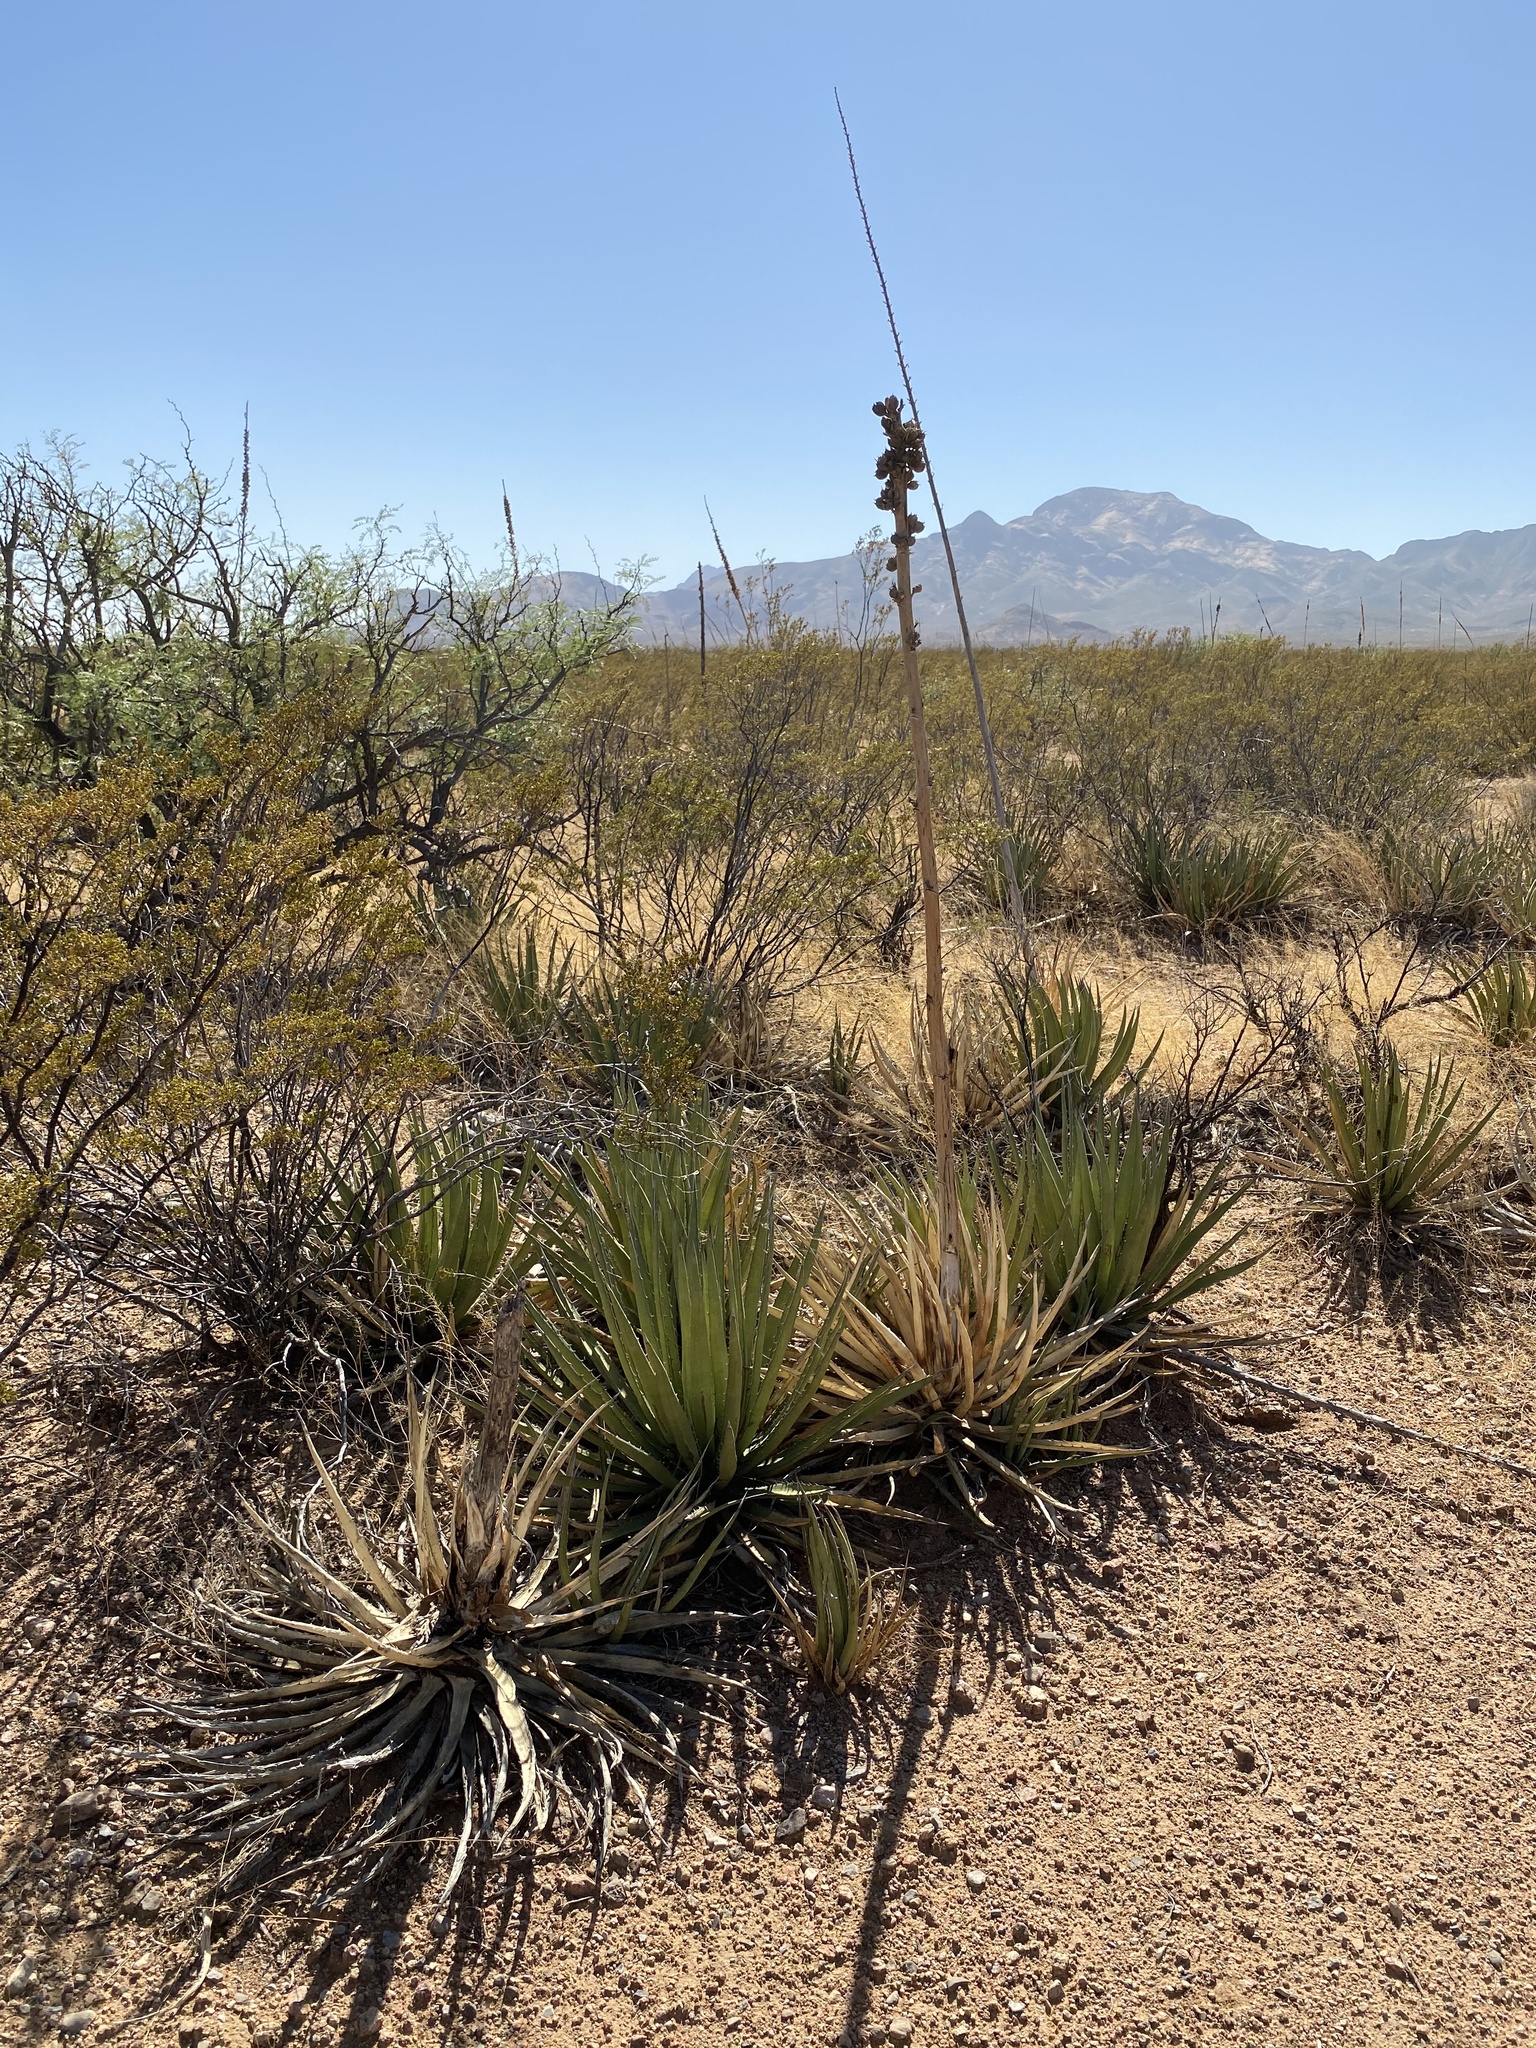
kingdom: Plantae
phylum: Tracheophyta
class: Liliopsida
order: Asparagales
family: Asparagaceae
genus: Agave
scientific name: Agave lechuguilla
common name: Lecheguilla agave
